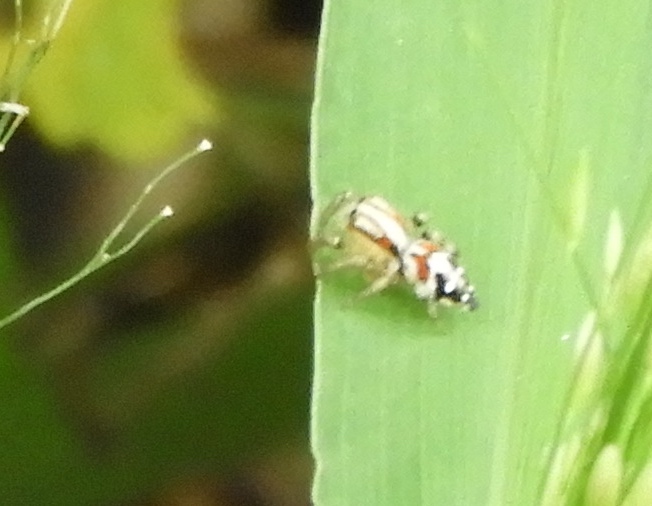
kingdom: Animalia
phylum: Arthropoda
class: Arachnida
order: Araneae
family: Salticidae
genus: Nycerella
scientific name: Nycerella delecta
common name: Jumping spiders
